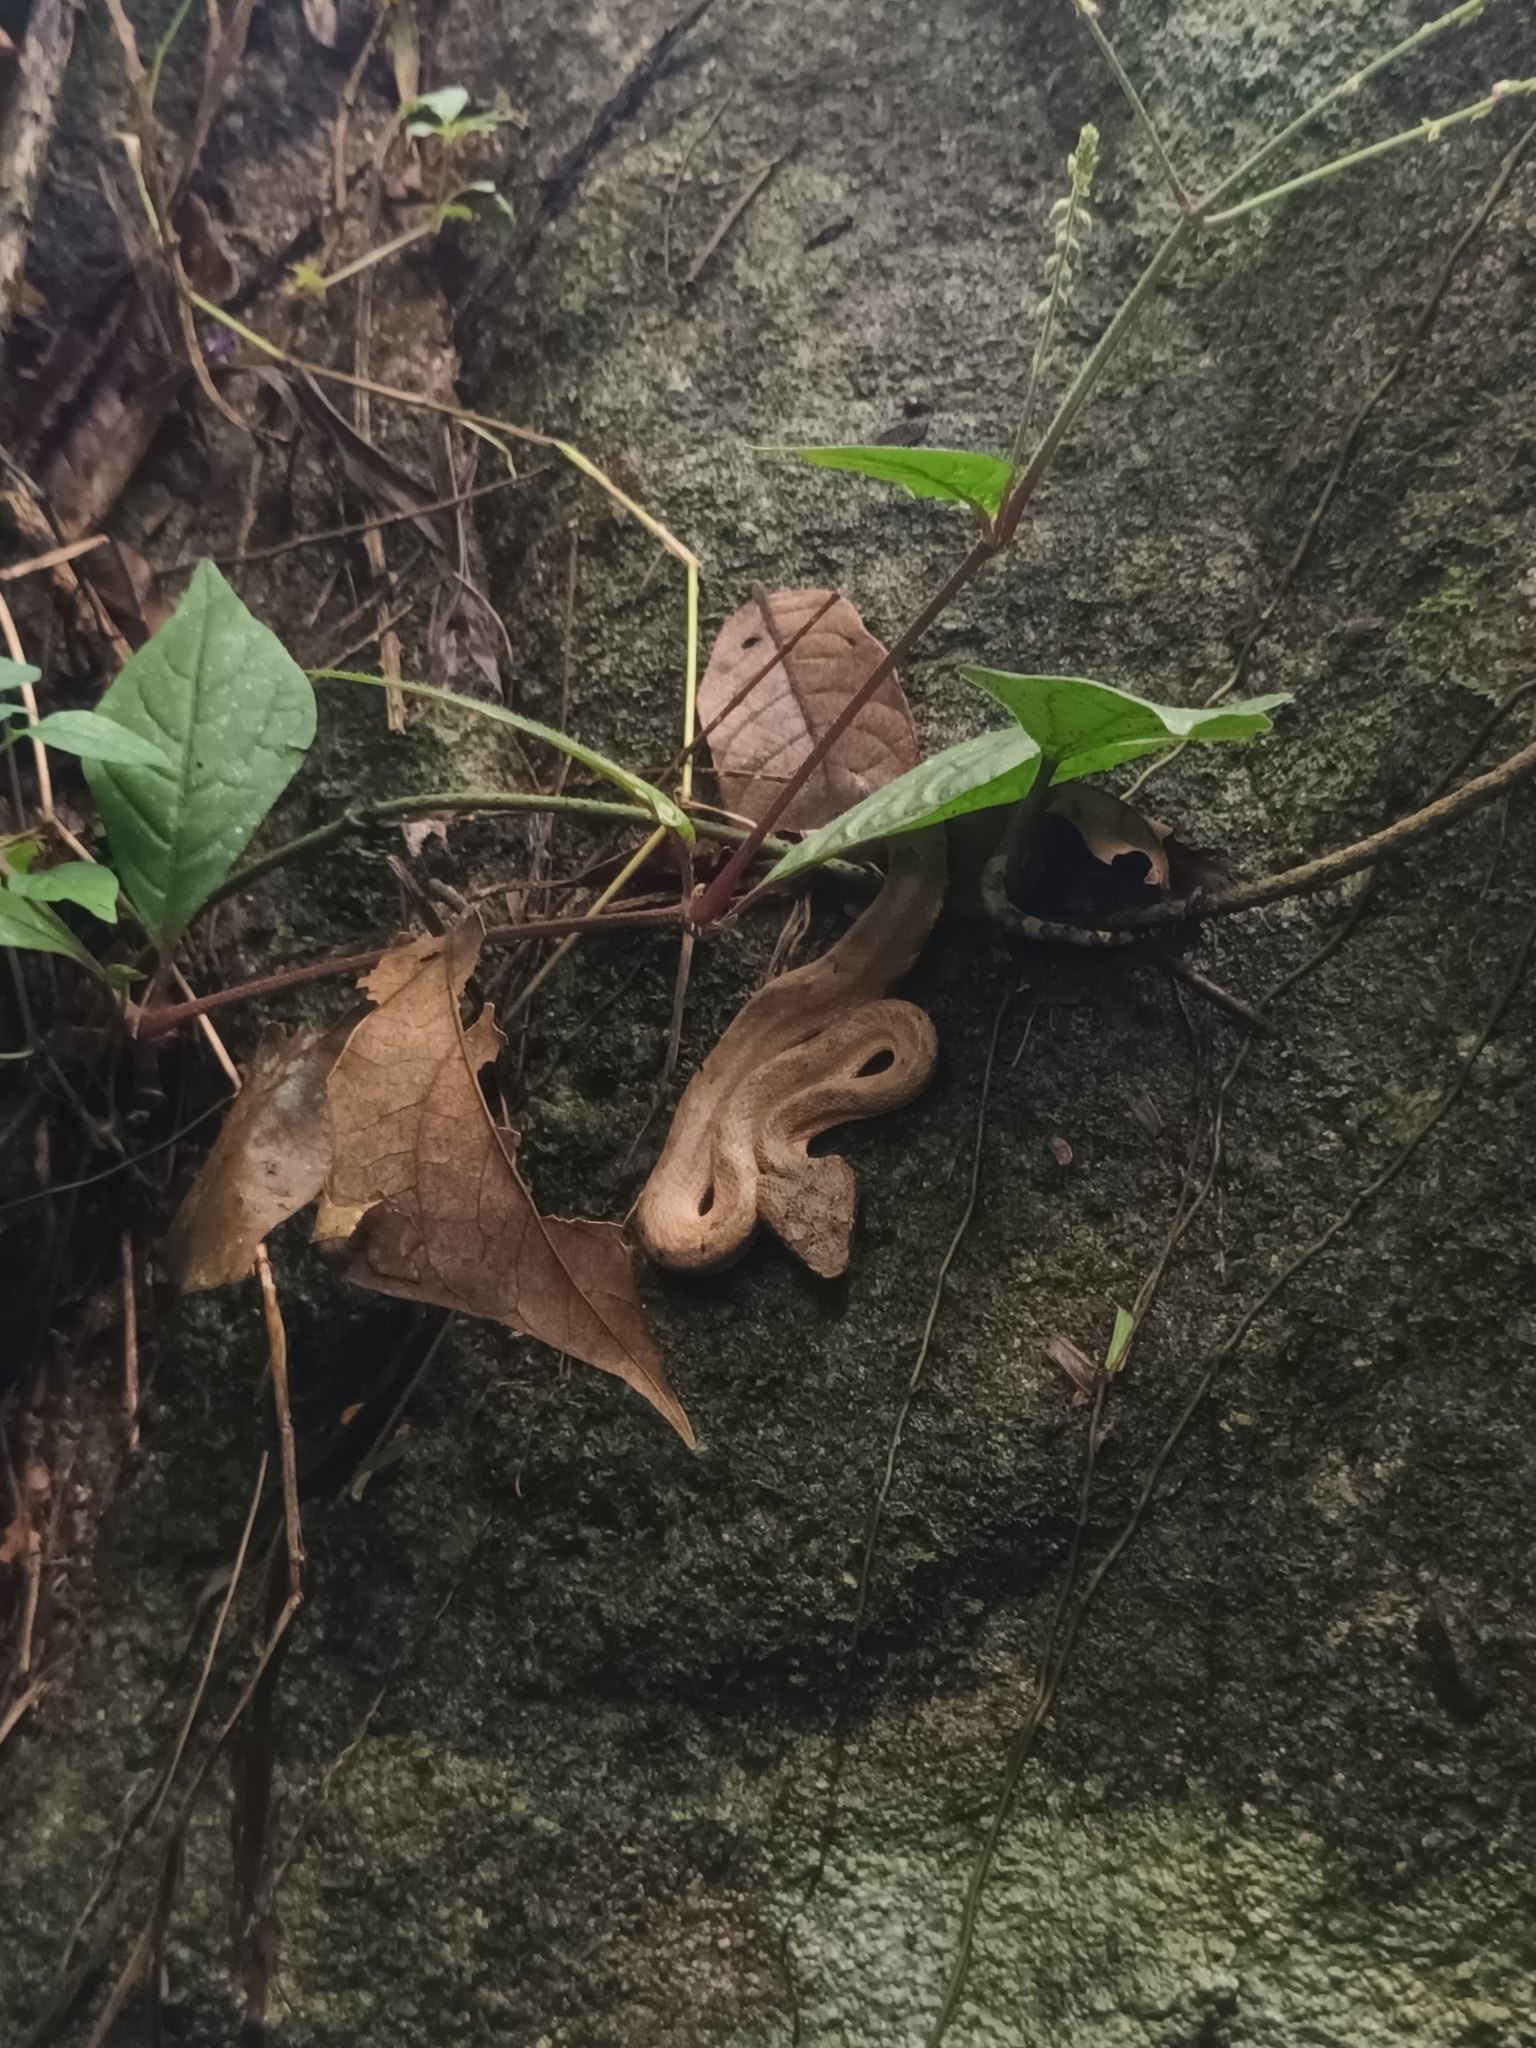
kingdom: Animalia
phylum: Chordata
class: Squamata
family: Viperidae
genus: Craspedocephalus
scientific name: Craspedocephalus anamallensis
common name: Malabarian pit viper
